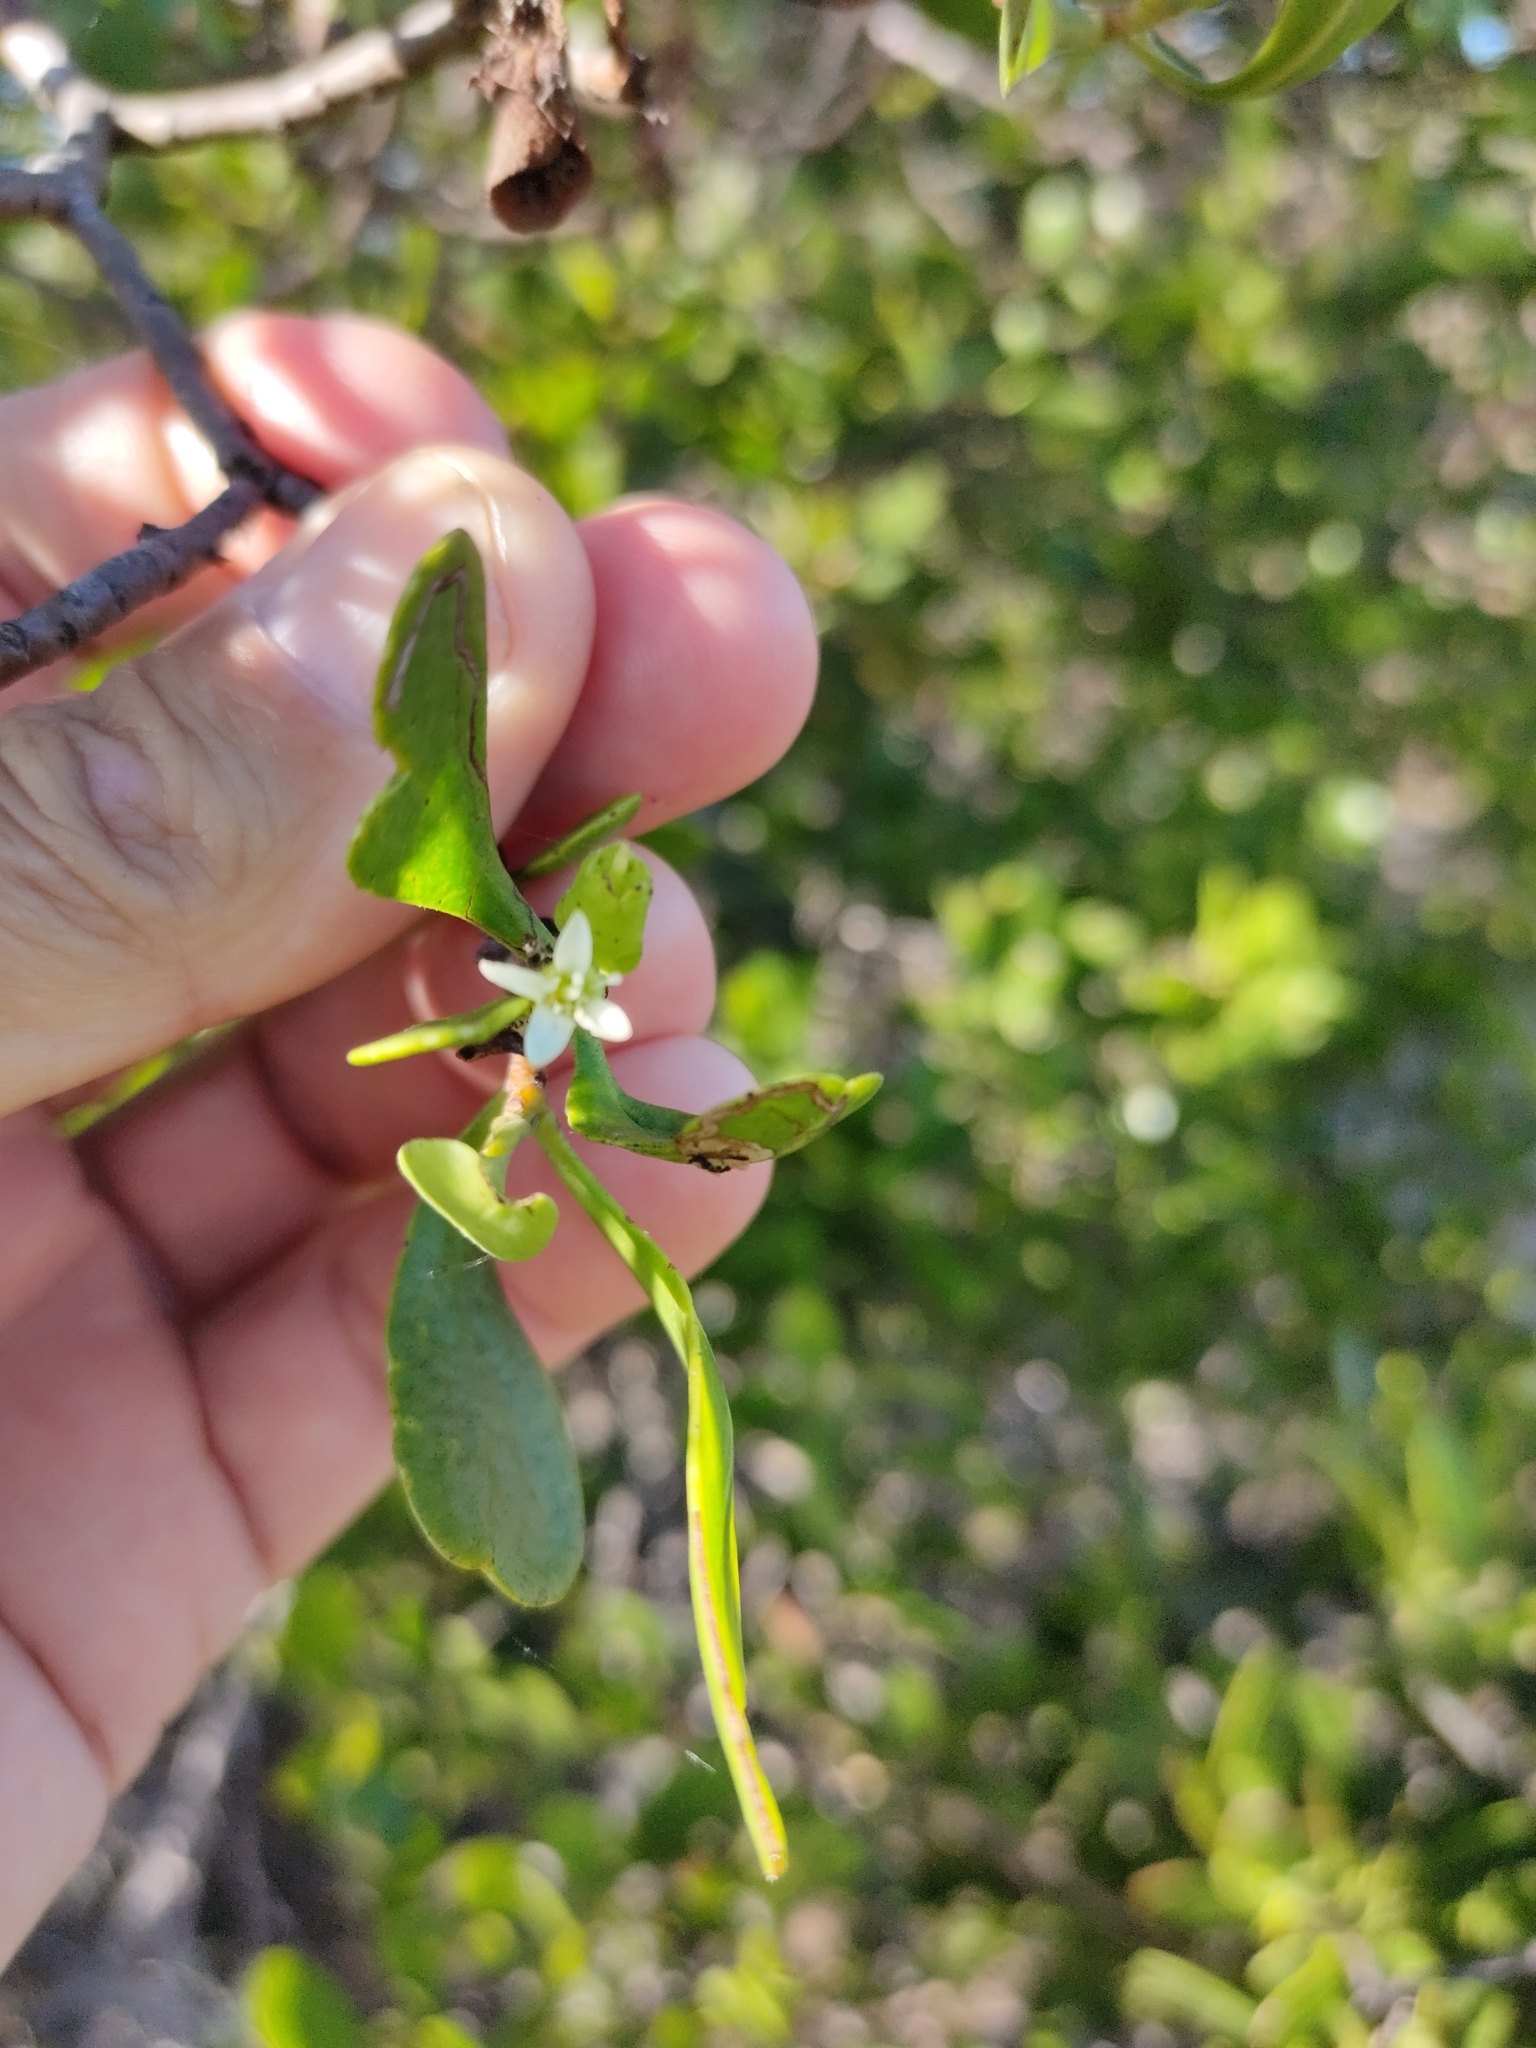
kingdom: Plantae
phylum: Tracheophyta
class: Magnoliopsida
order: Myrtales
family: Combretaceae
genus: Lumnitzera
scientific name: Lumnitzera racemosa
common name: White-flowered black mangrove
